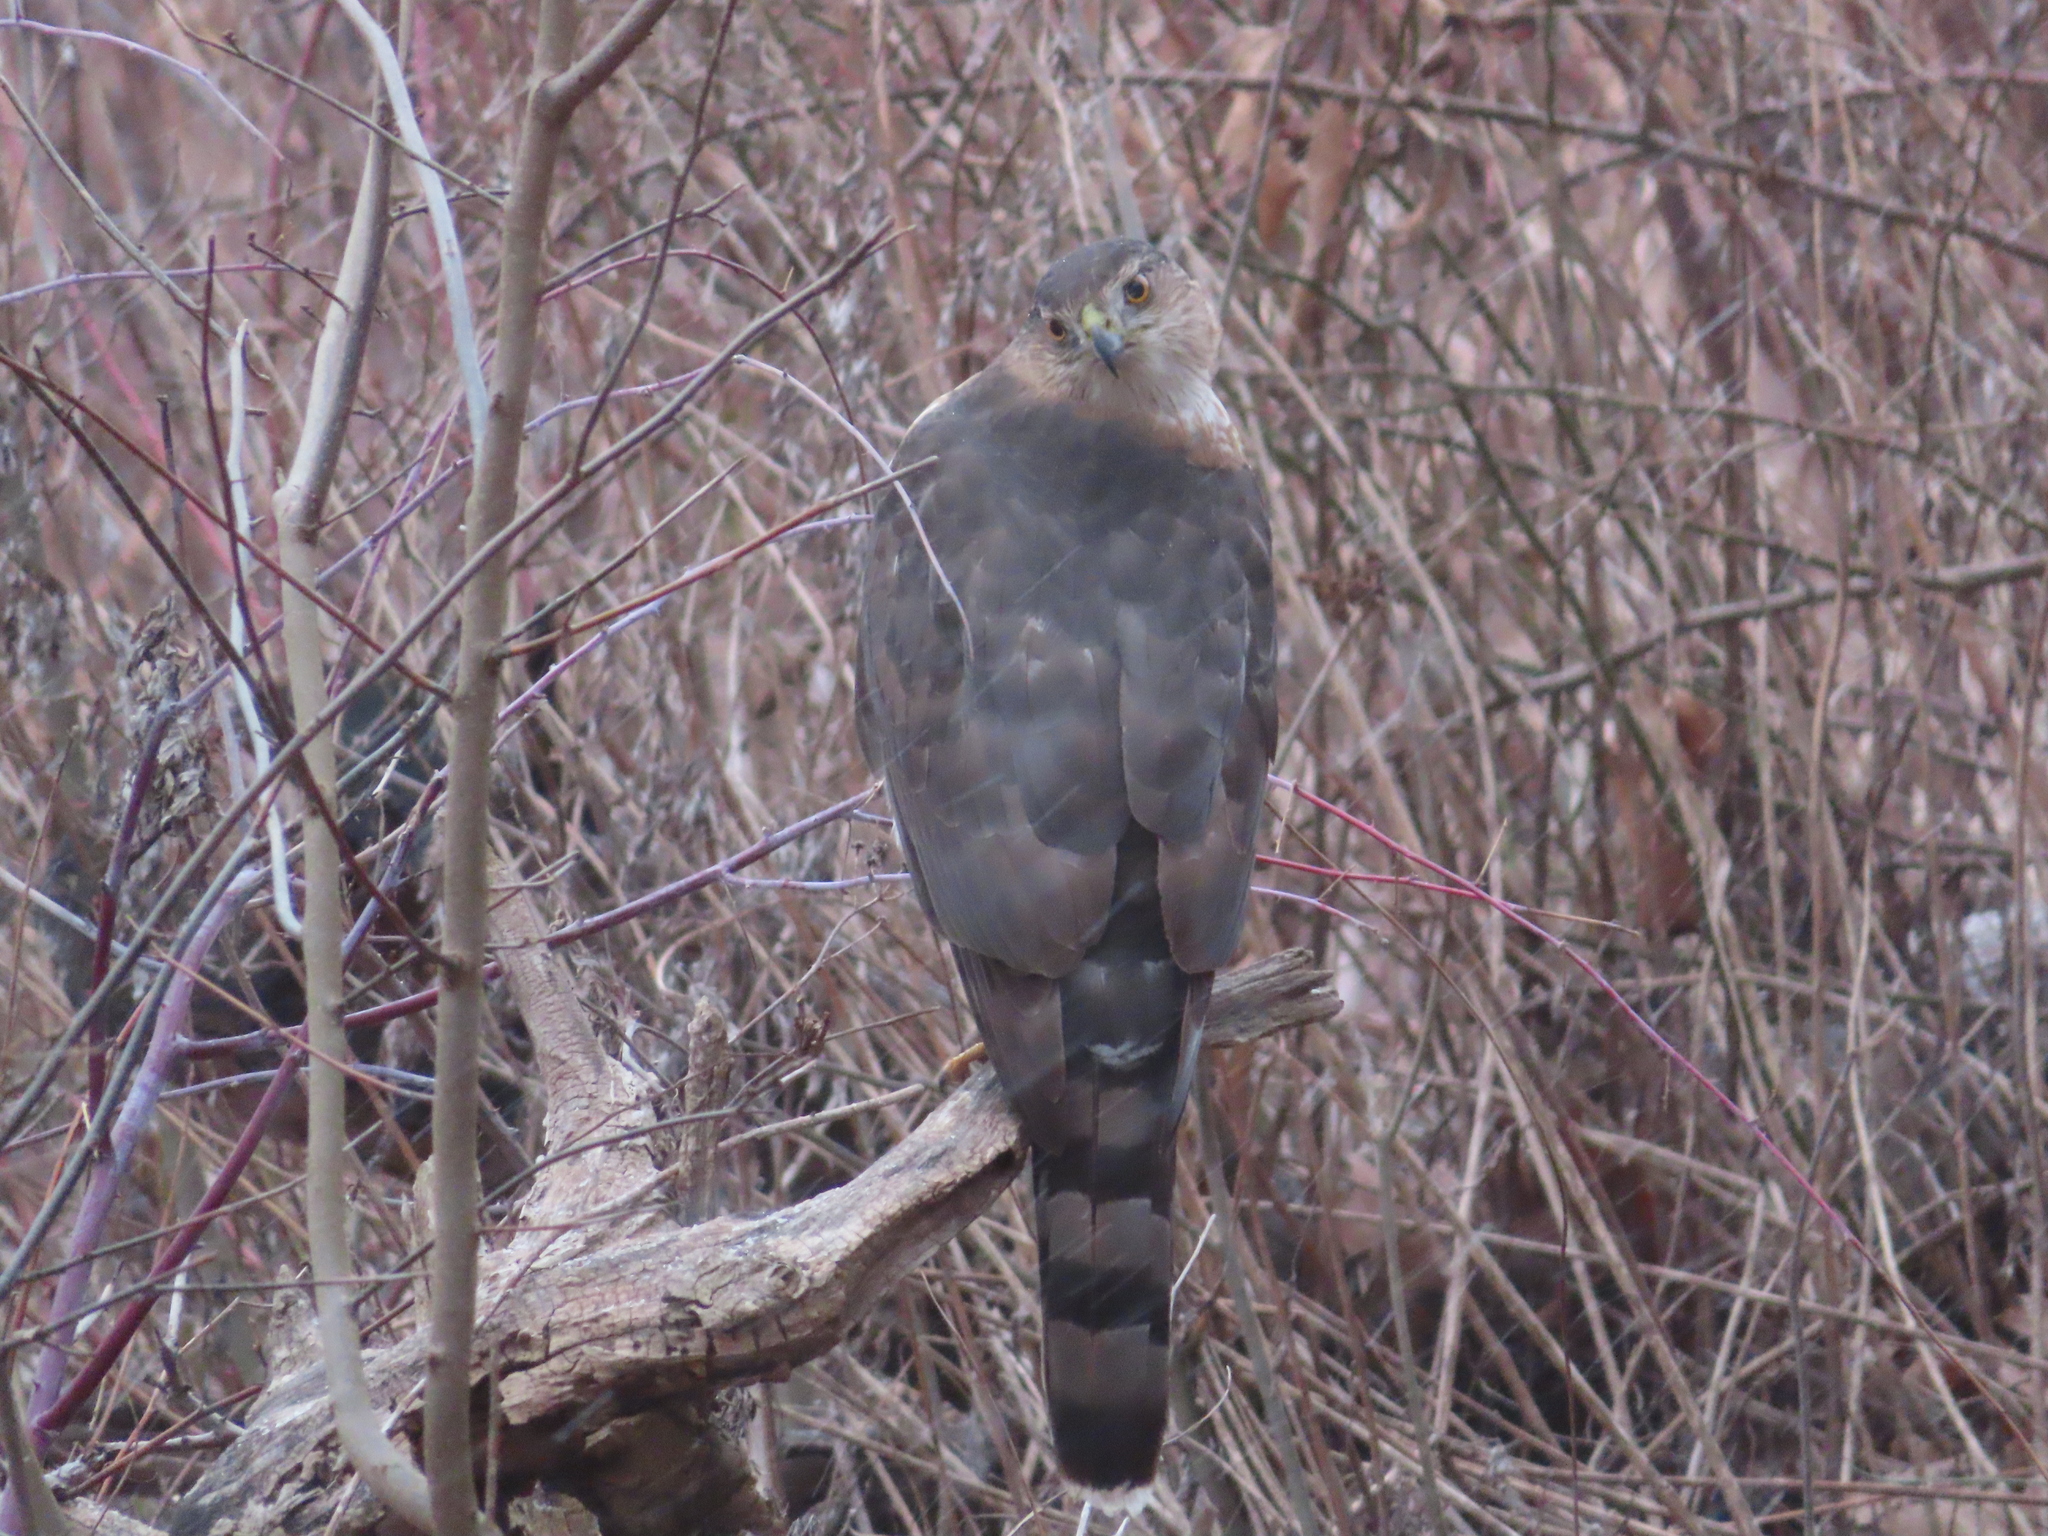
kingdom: Animalia
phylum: Chordata
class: Aves
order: Accipitriformes
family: Accipitridae
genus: Accipiter
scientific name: Accipiter cooperii
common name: Cooper's hawk
